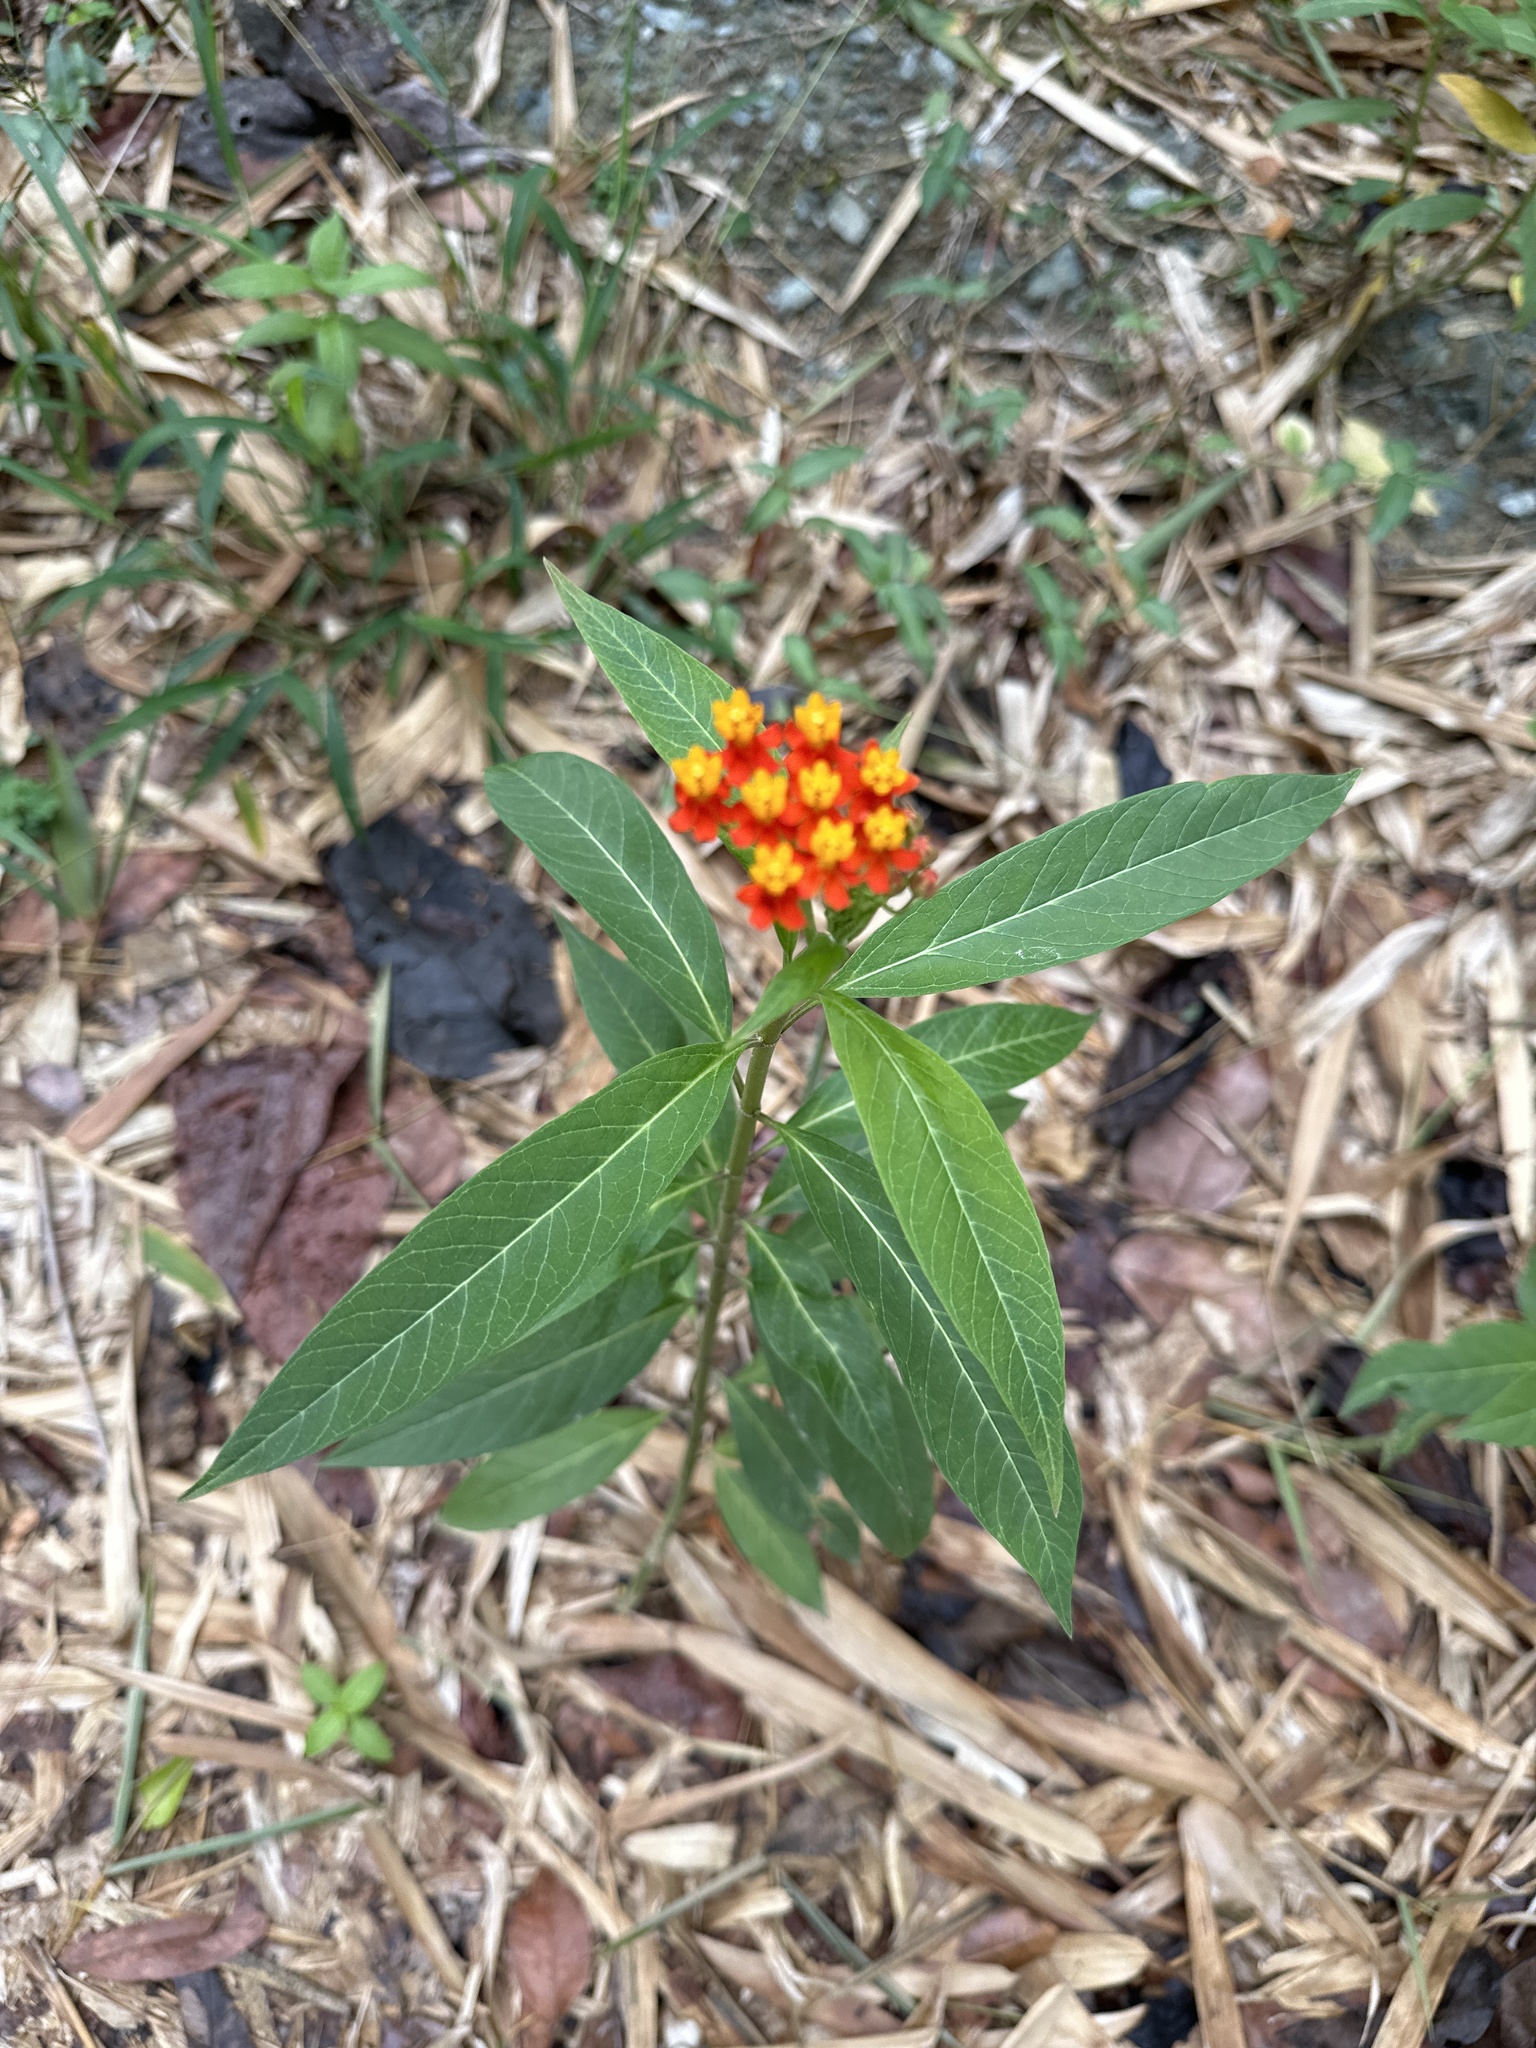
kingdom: Plantae
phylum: Tracheophyta
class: Magnoliopsida
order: Gentianales
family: Apocynaceae
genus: Asclepias
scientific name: Asclepias curassavica
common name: Bloodflower
